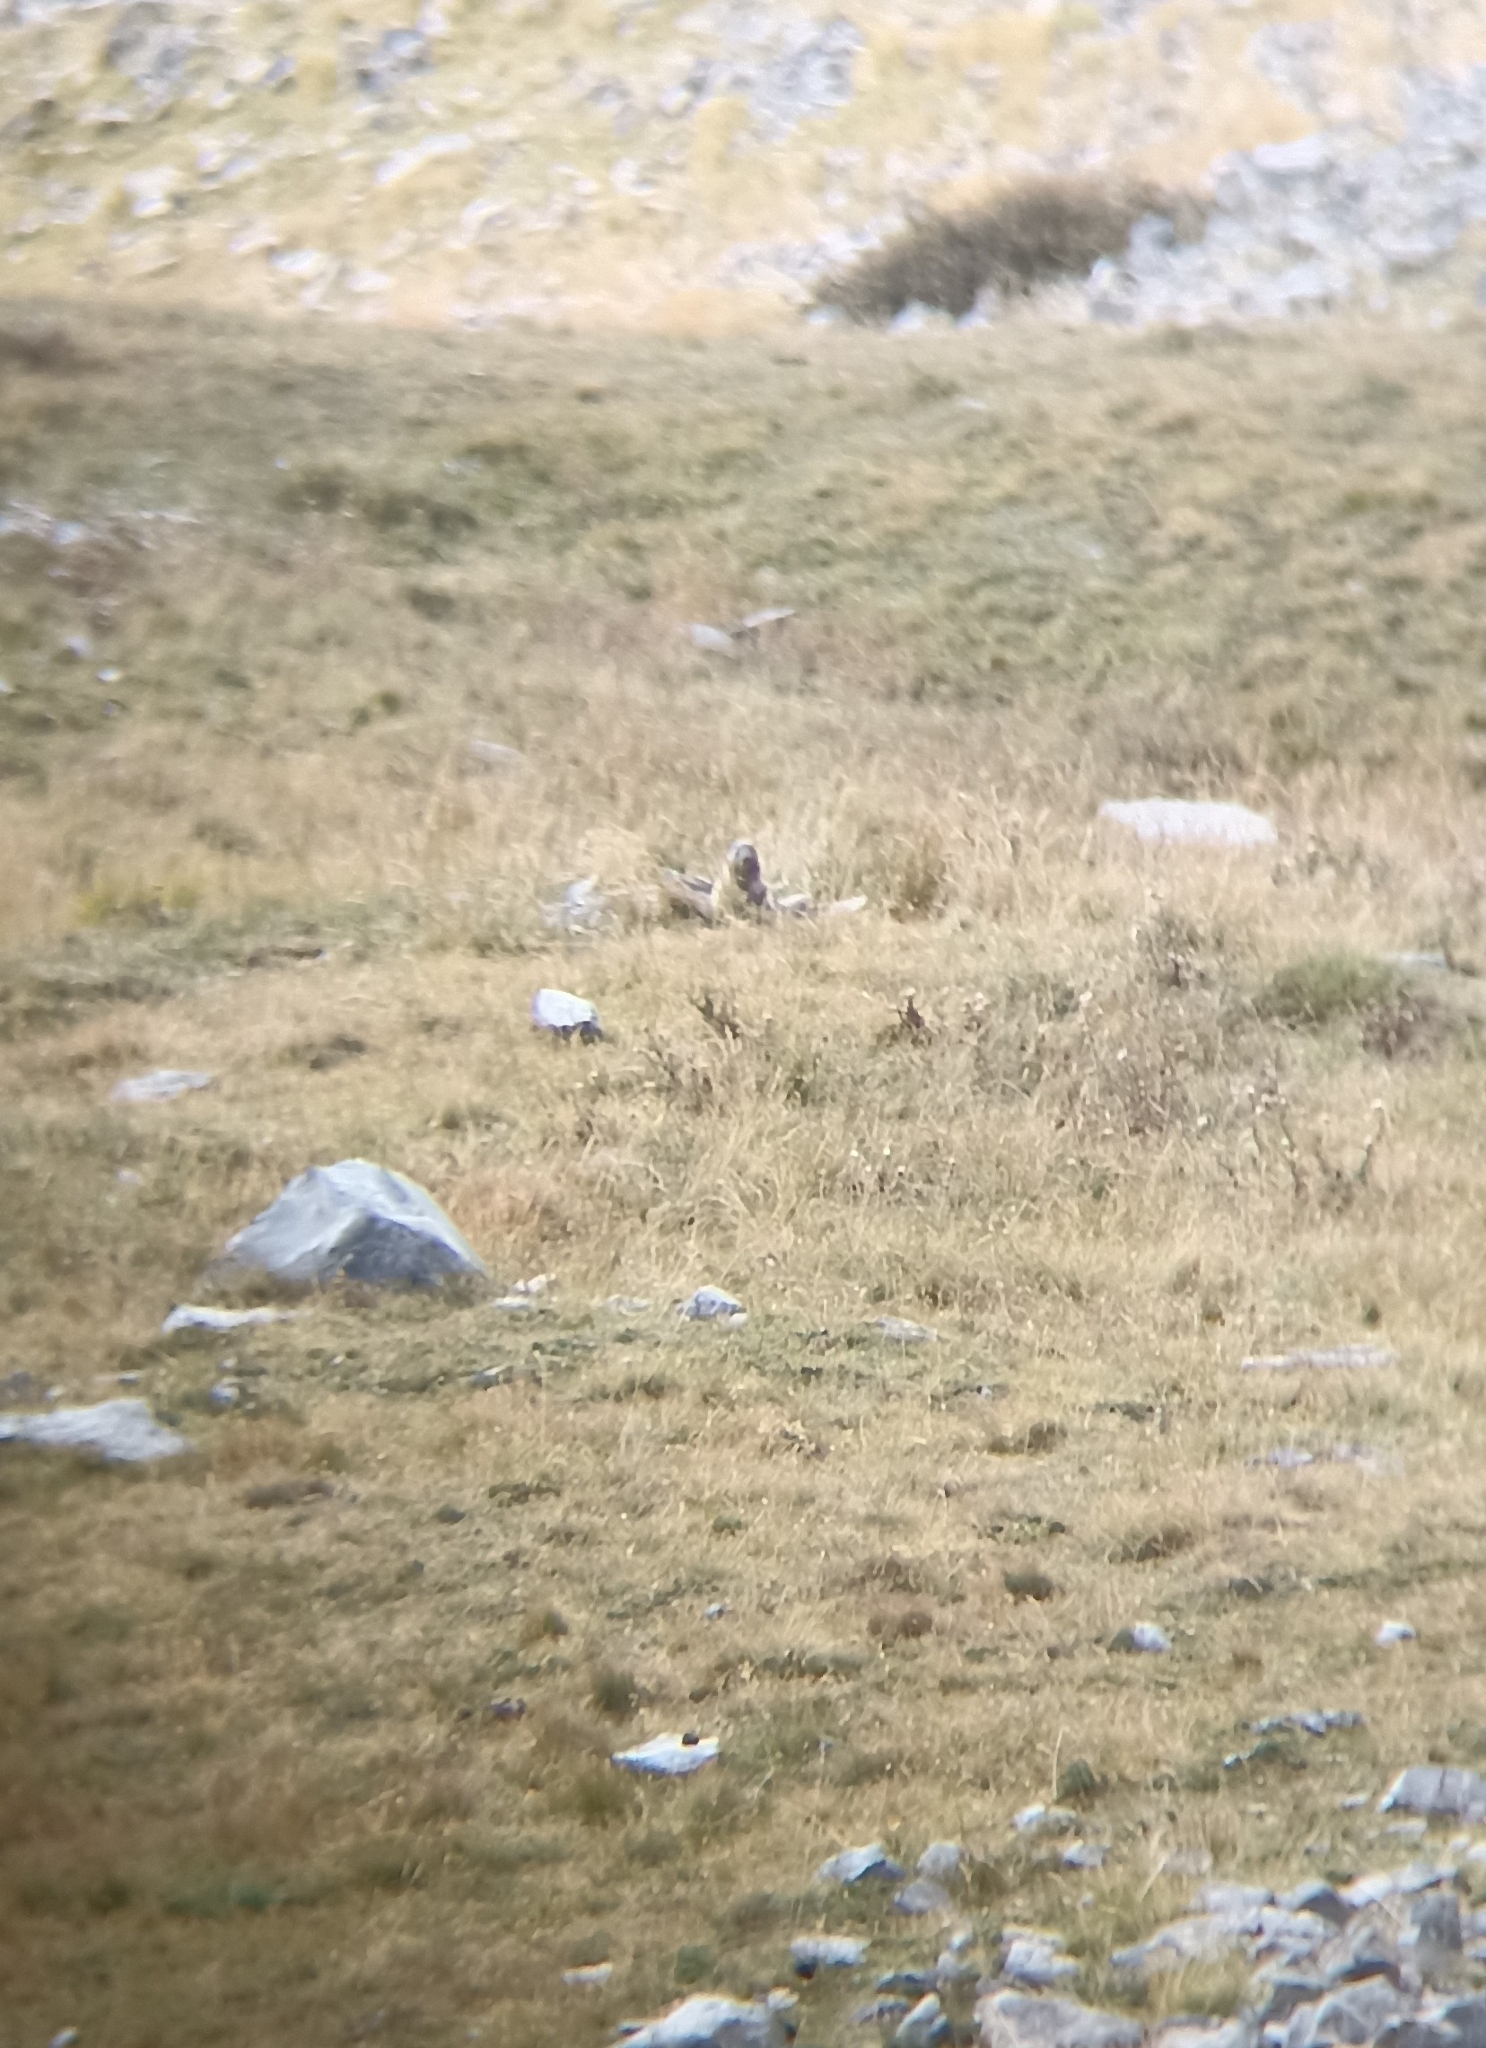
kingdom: Animalia
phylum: Chordata
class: Mammalia
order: Rodentia
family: Sciuridae
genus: Marmota
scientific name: Marmota marmota
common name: Alpine marmot
